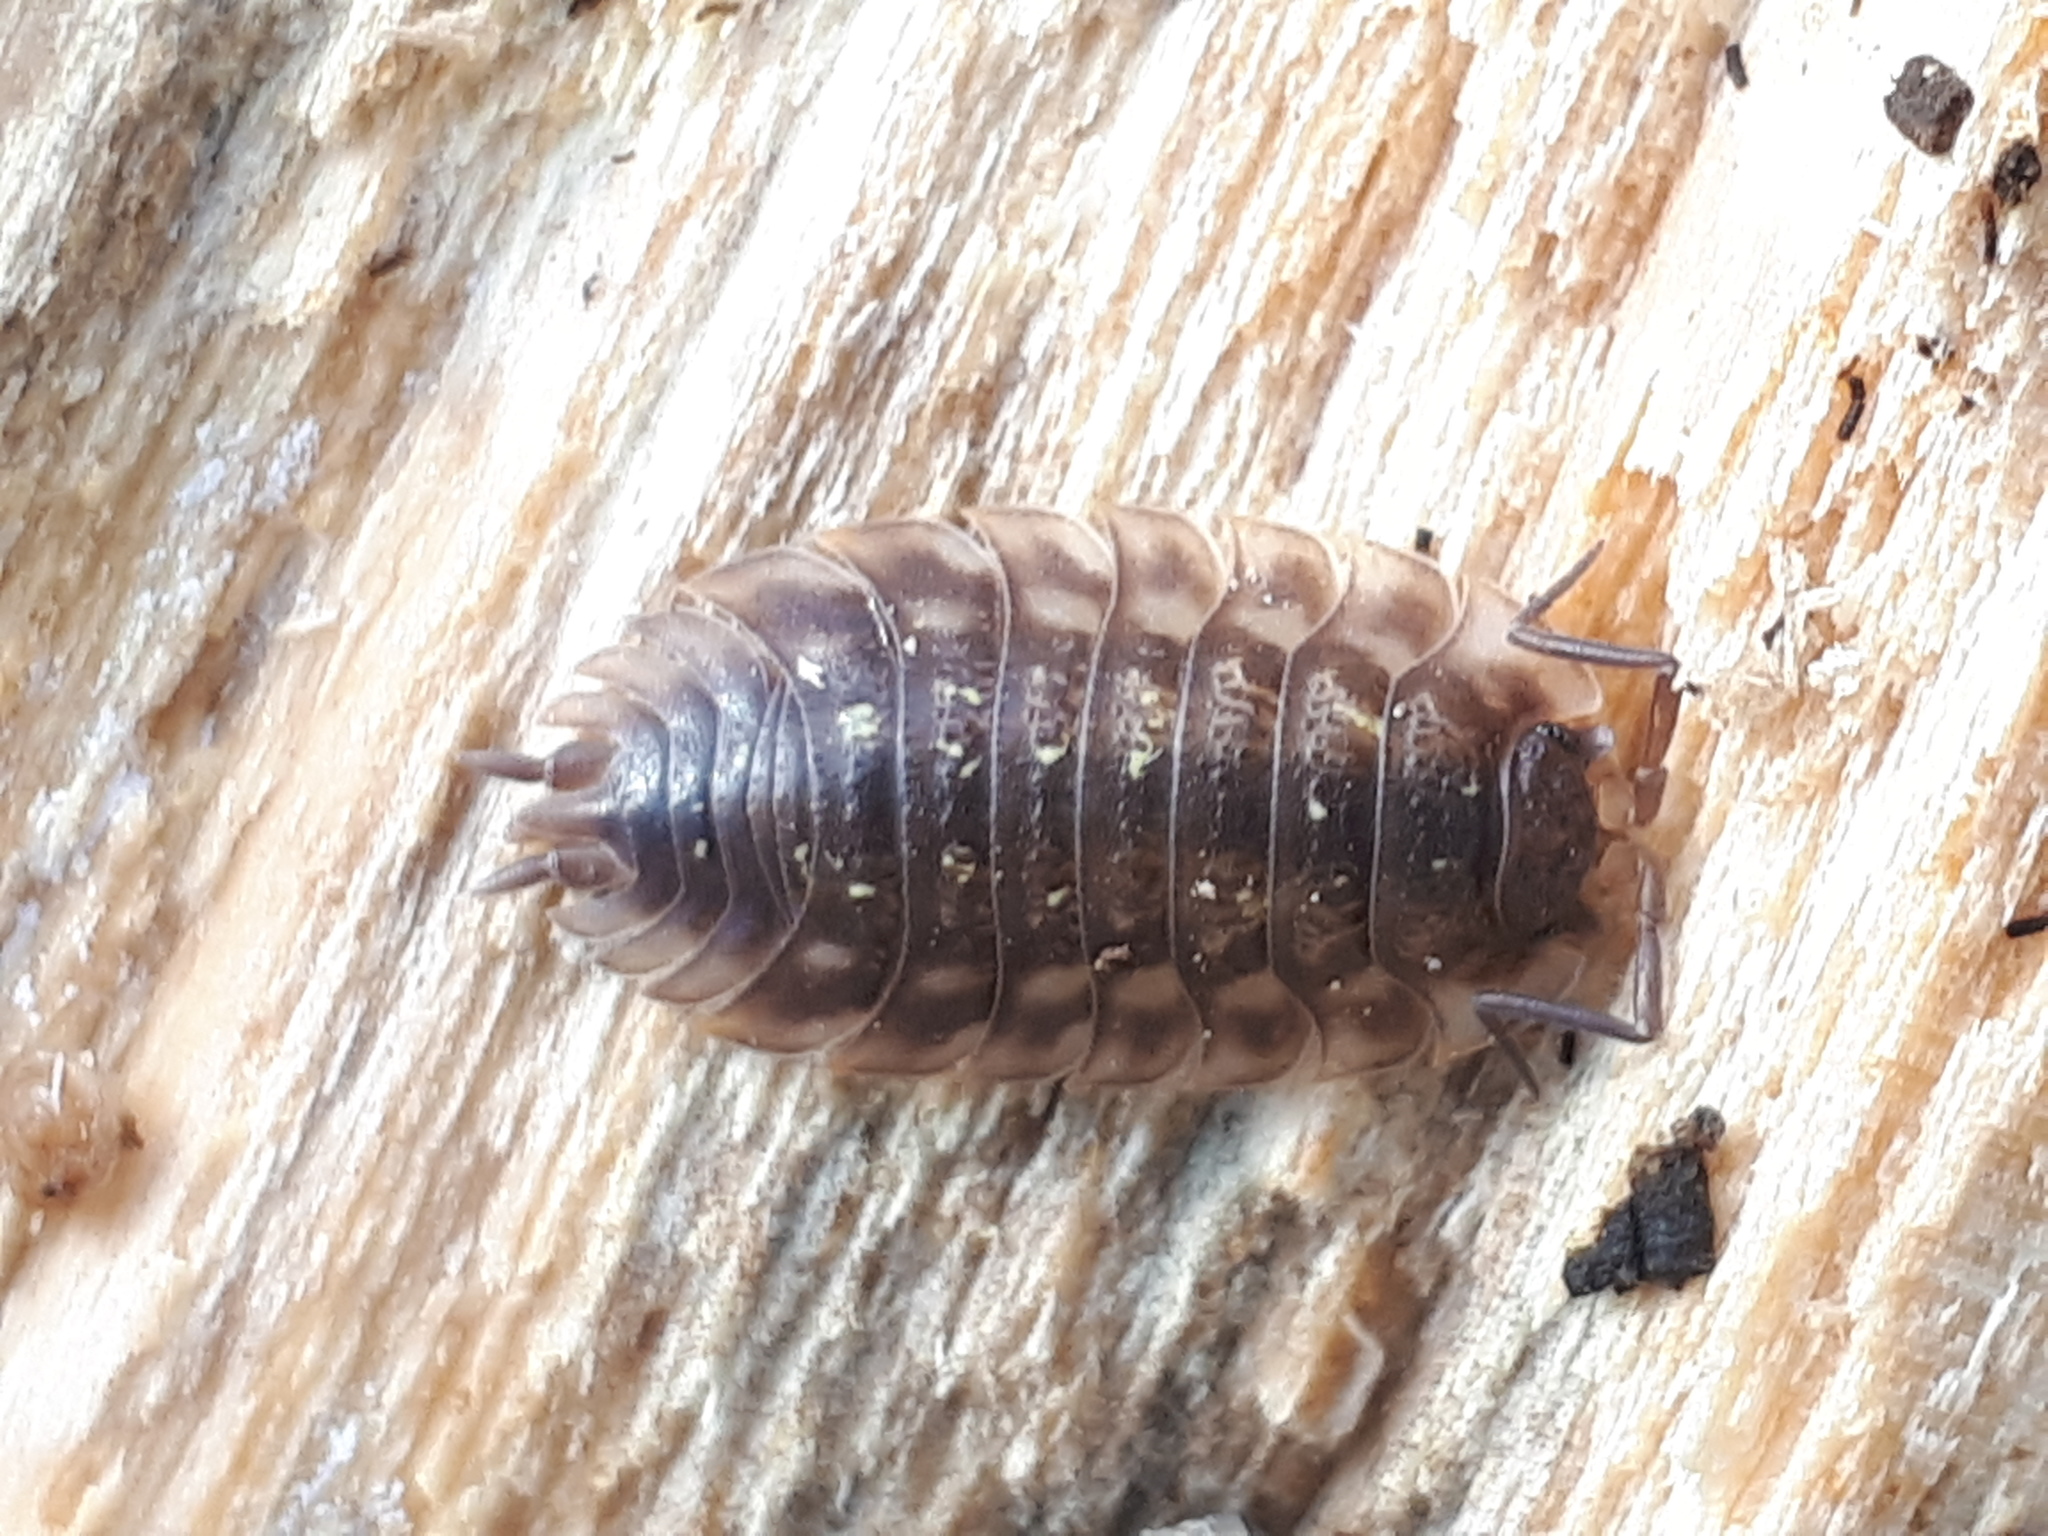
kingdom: Animalia
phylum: Arthropoda
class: Malacostraca
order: Isopoda
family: Oniscidae
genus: Oniscus
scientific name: Oniscus asellus
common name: Common shiny woodlouse
